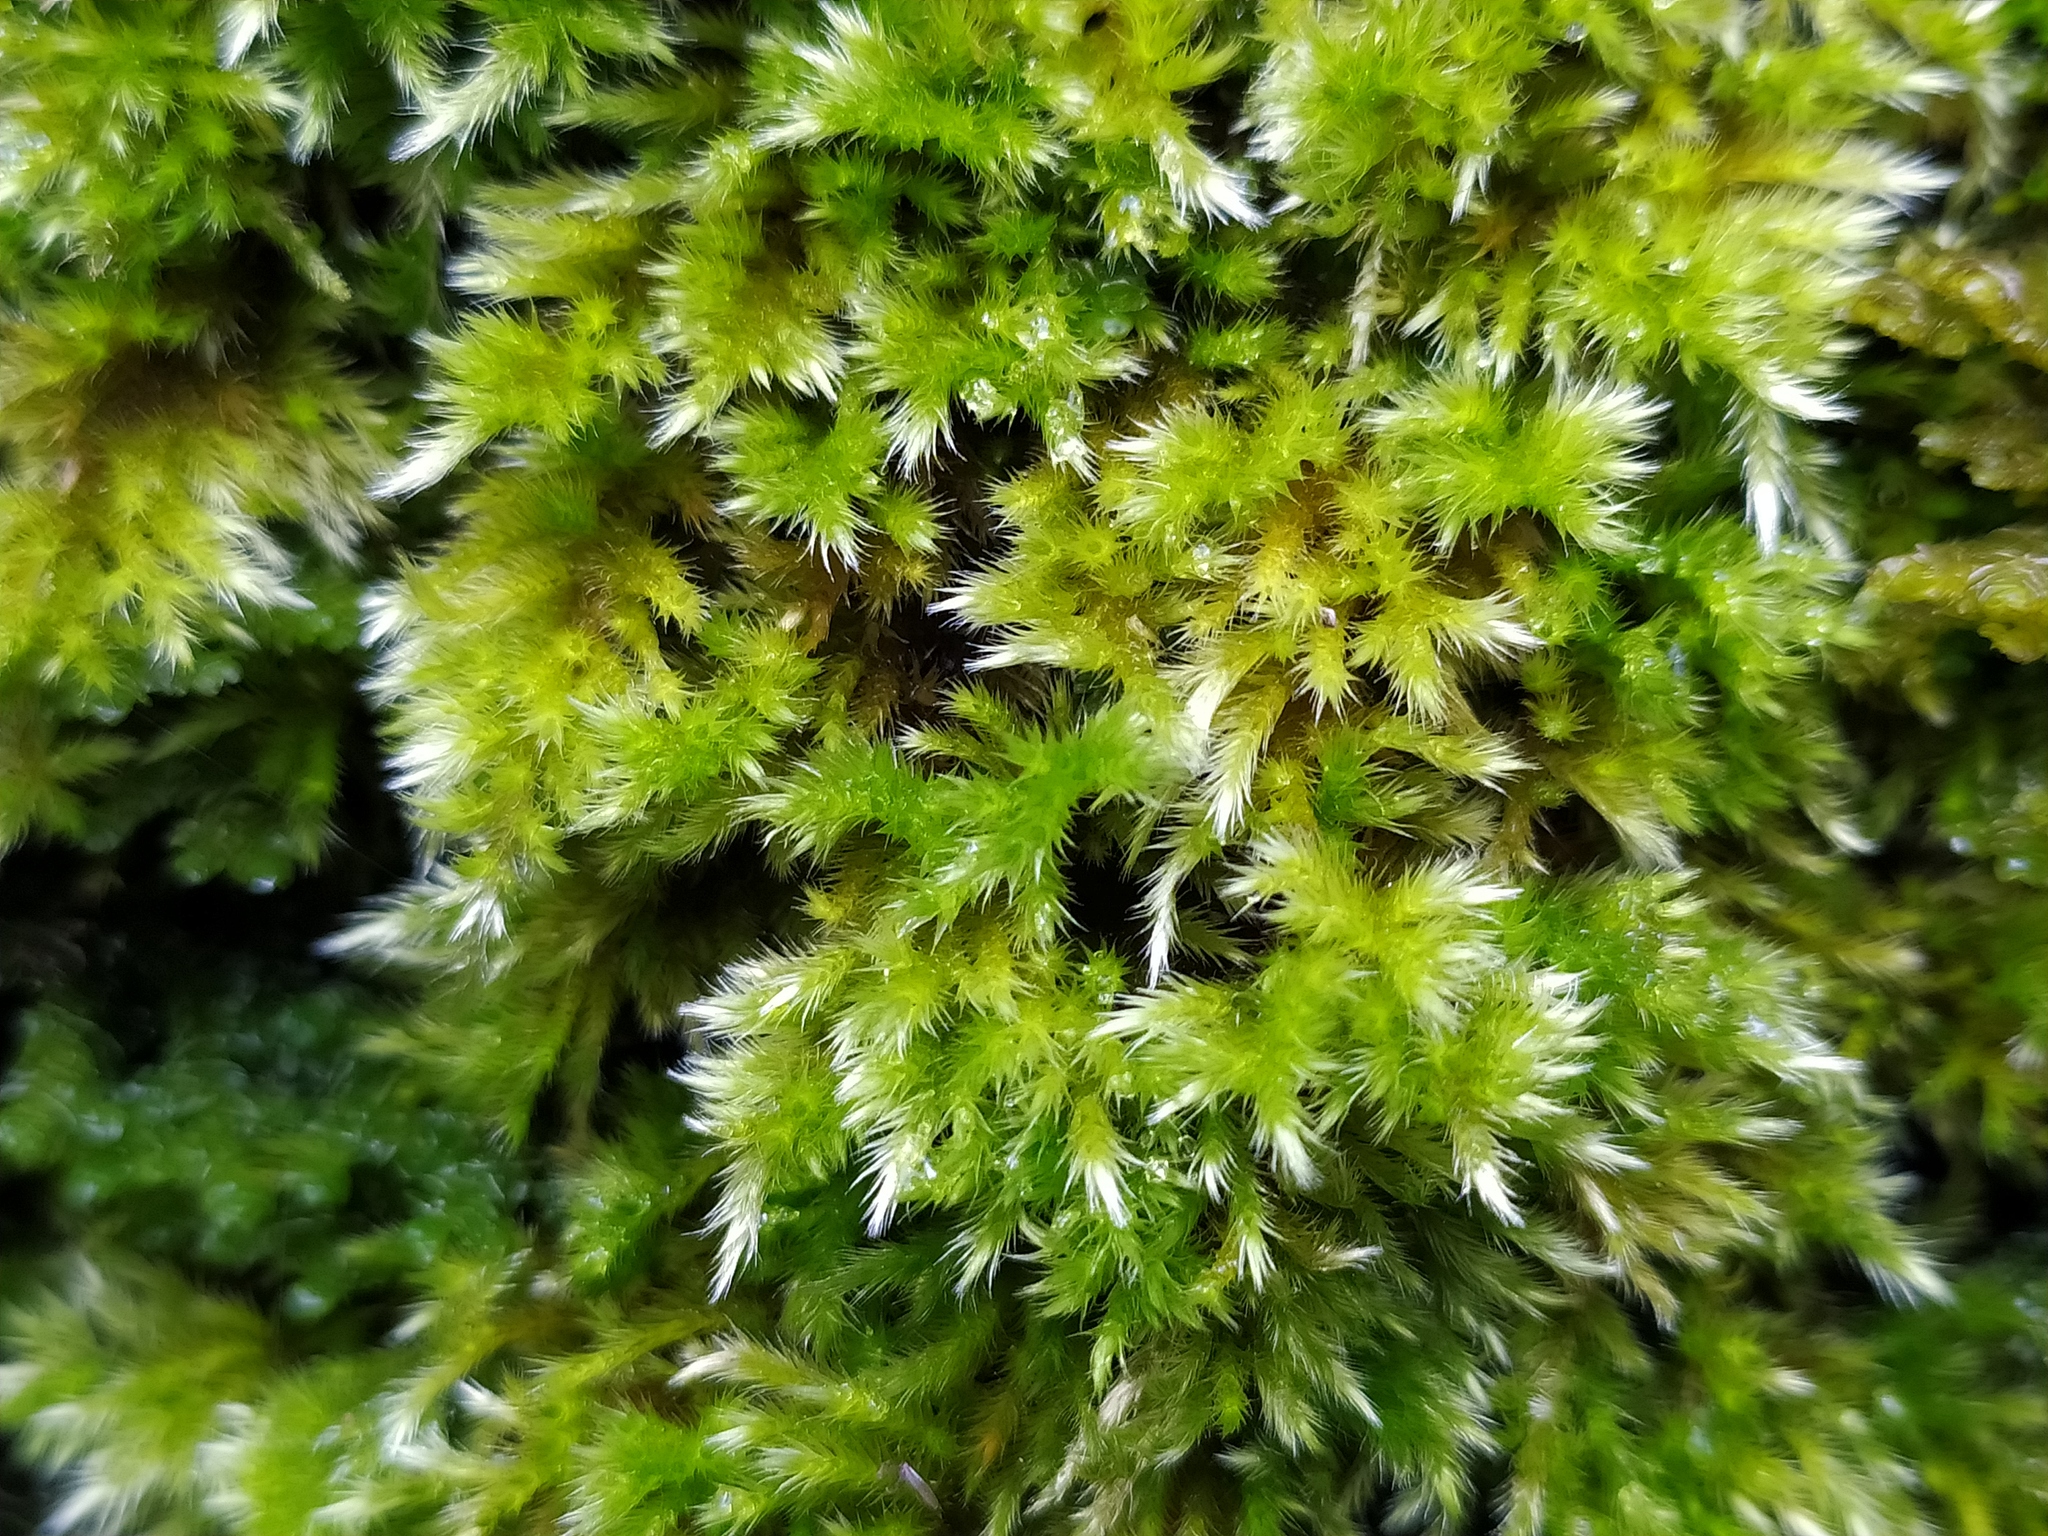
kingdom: Plantae
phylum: Bryophyta
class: Bryopsida
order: Hypnales
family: Brachytheciaceae
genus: Homalothecium
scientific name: Homalothecium sericeum
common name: Silky wall feather-moss
